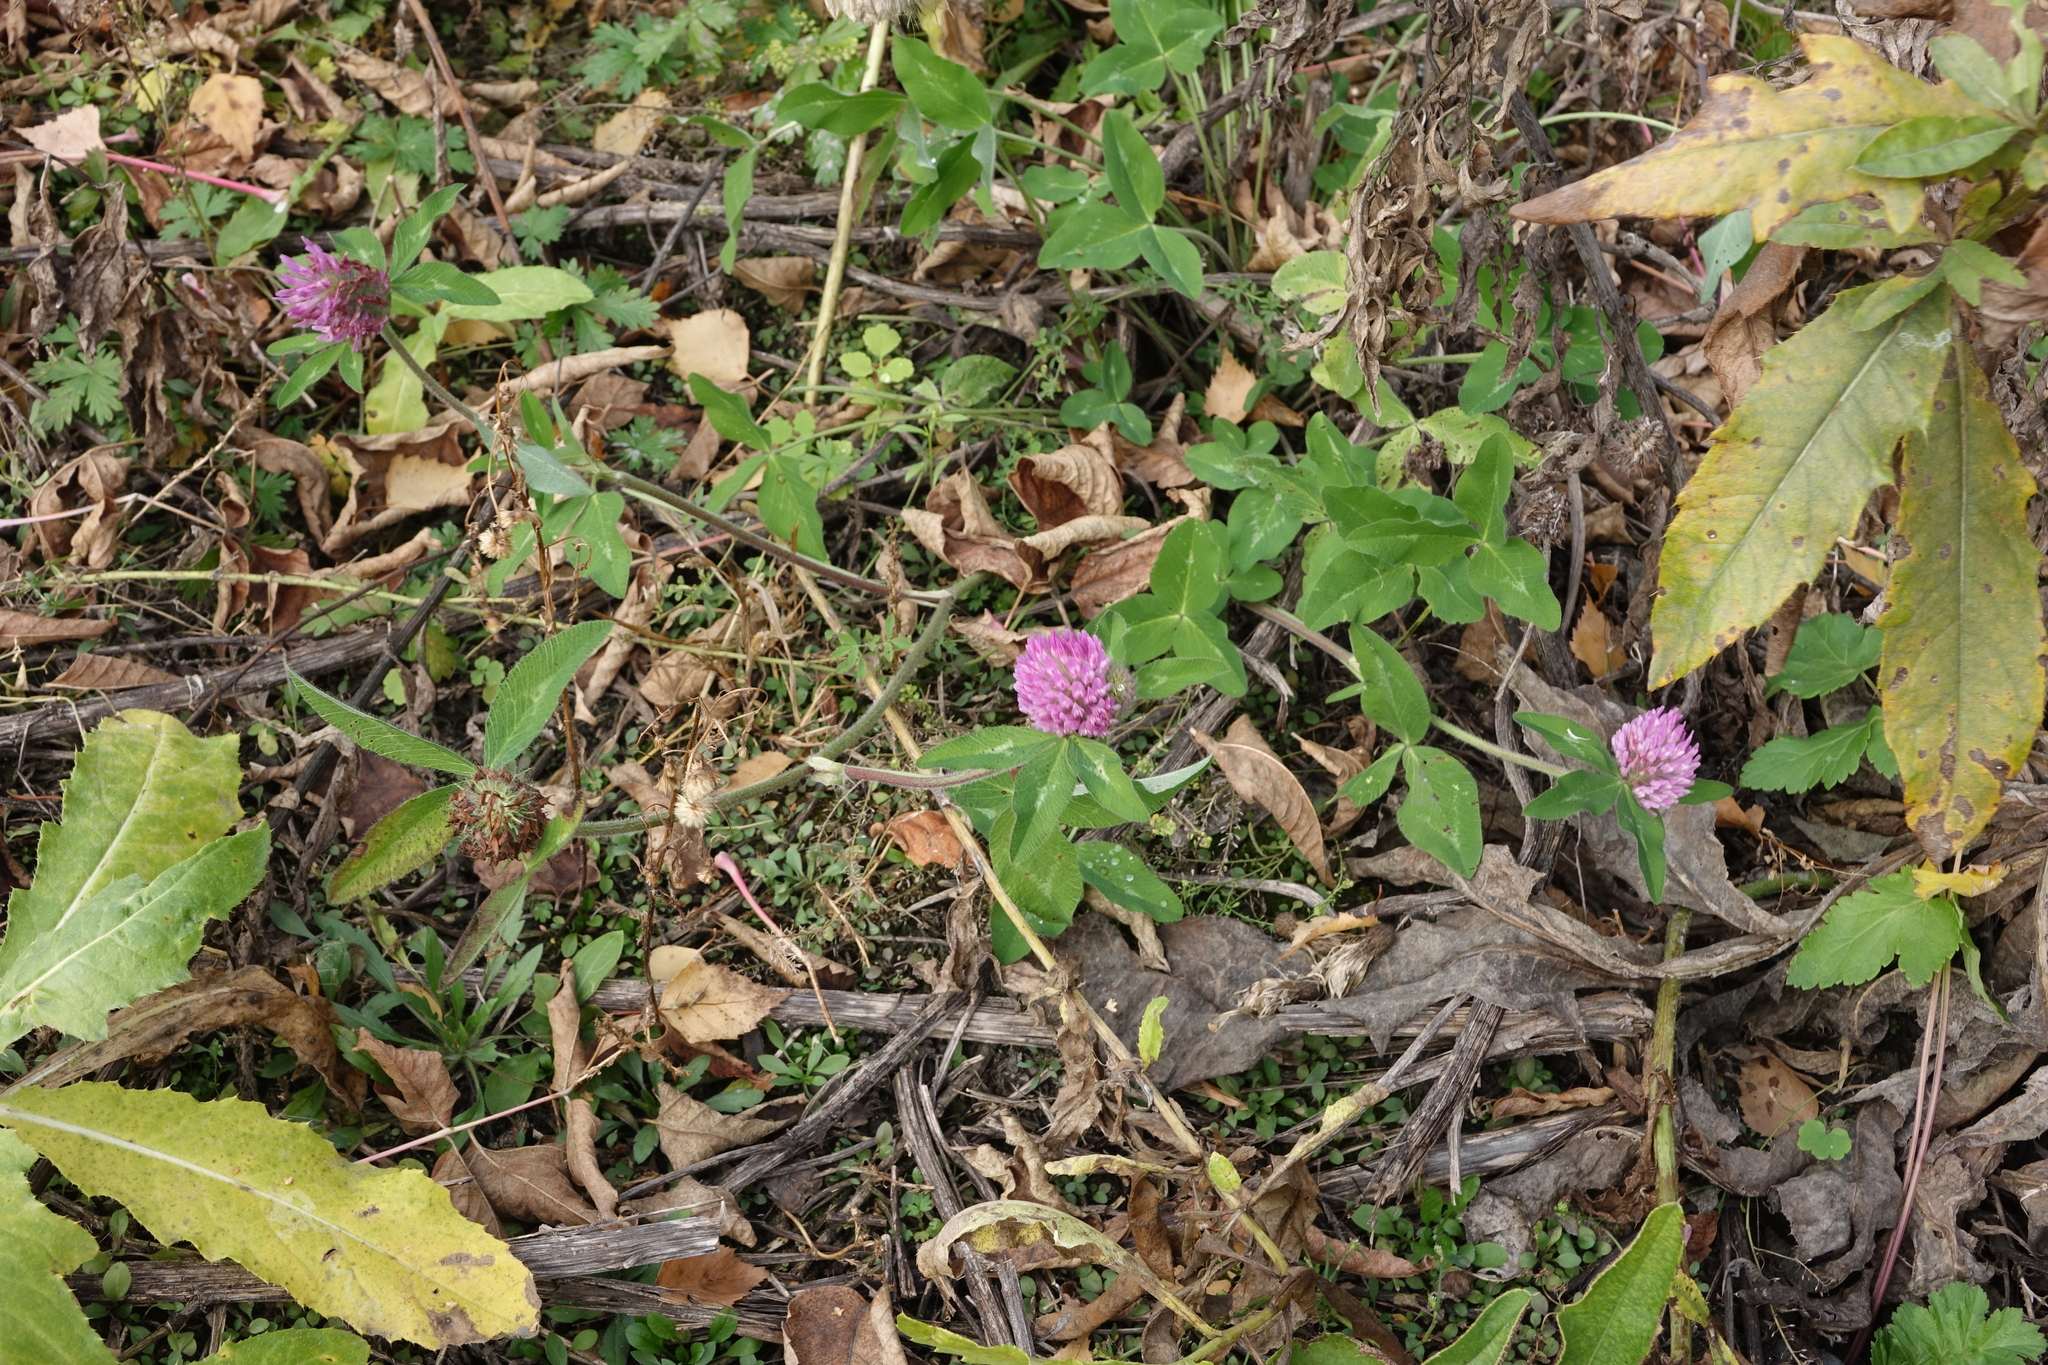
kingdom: Plantae
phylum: Tracheophyta
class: Magnoliopsida
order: Fabales
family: Fabaceae
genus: Trifolium
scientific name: Trifolium pratense
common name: Red clover
